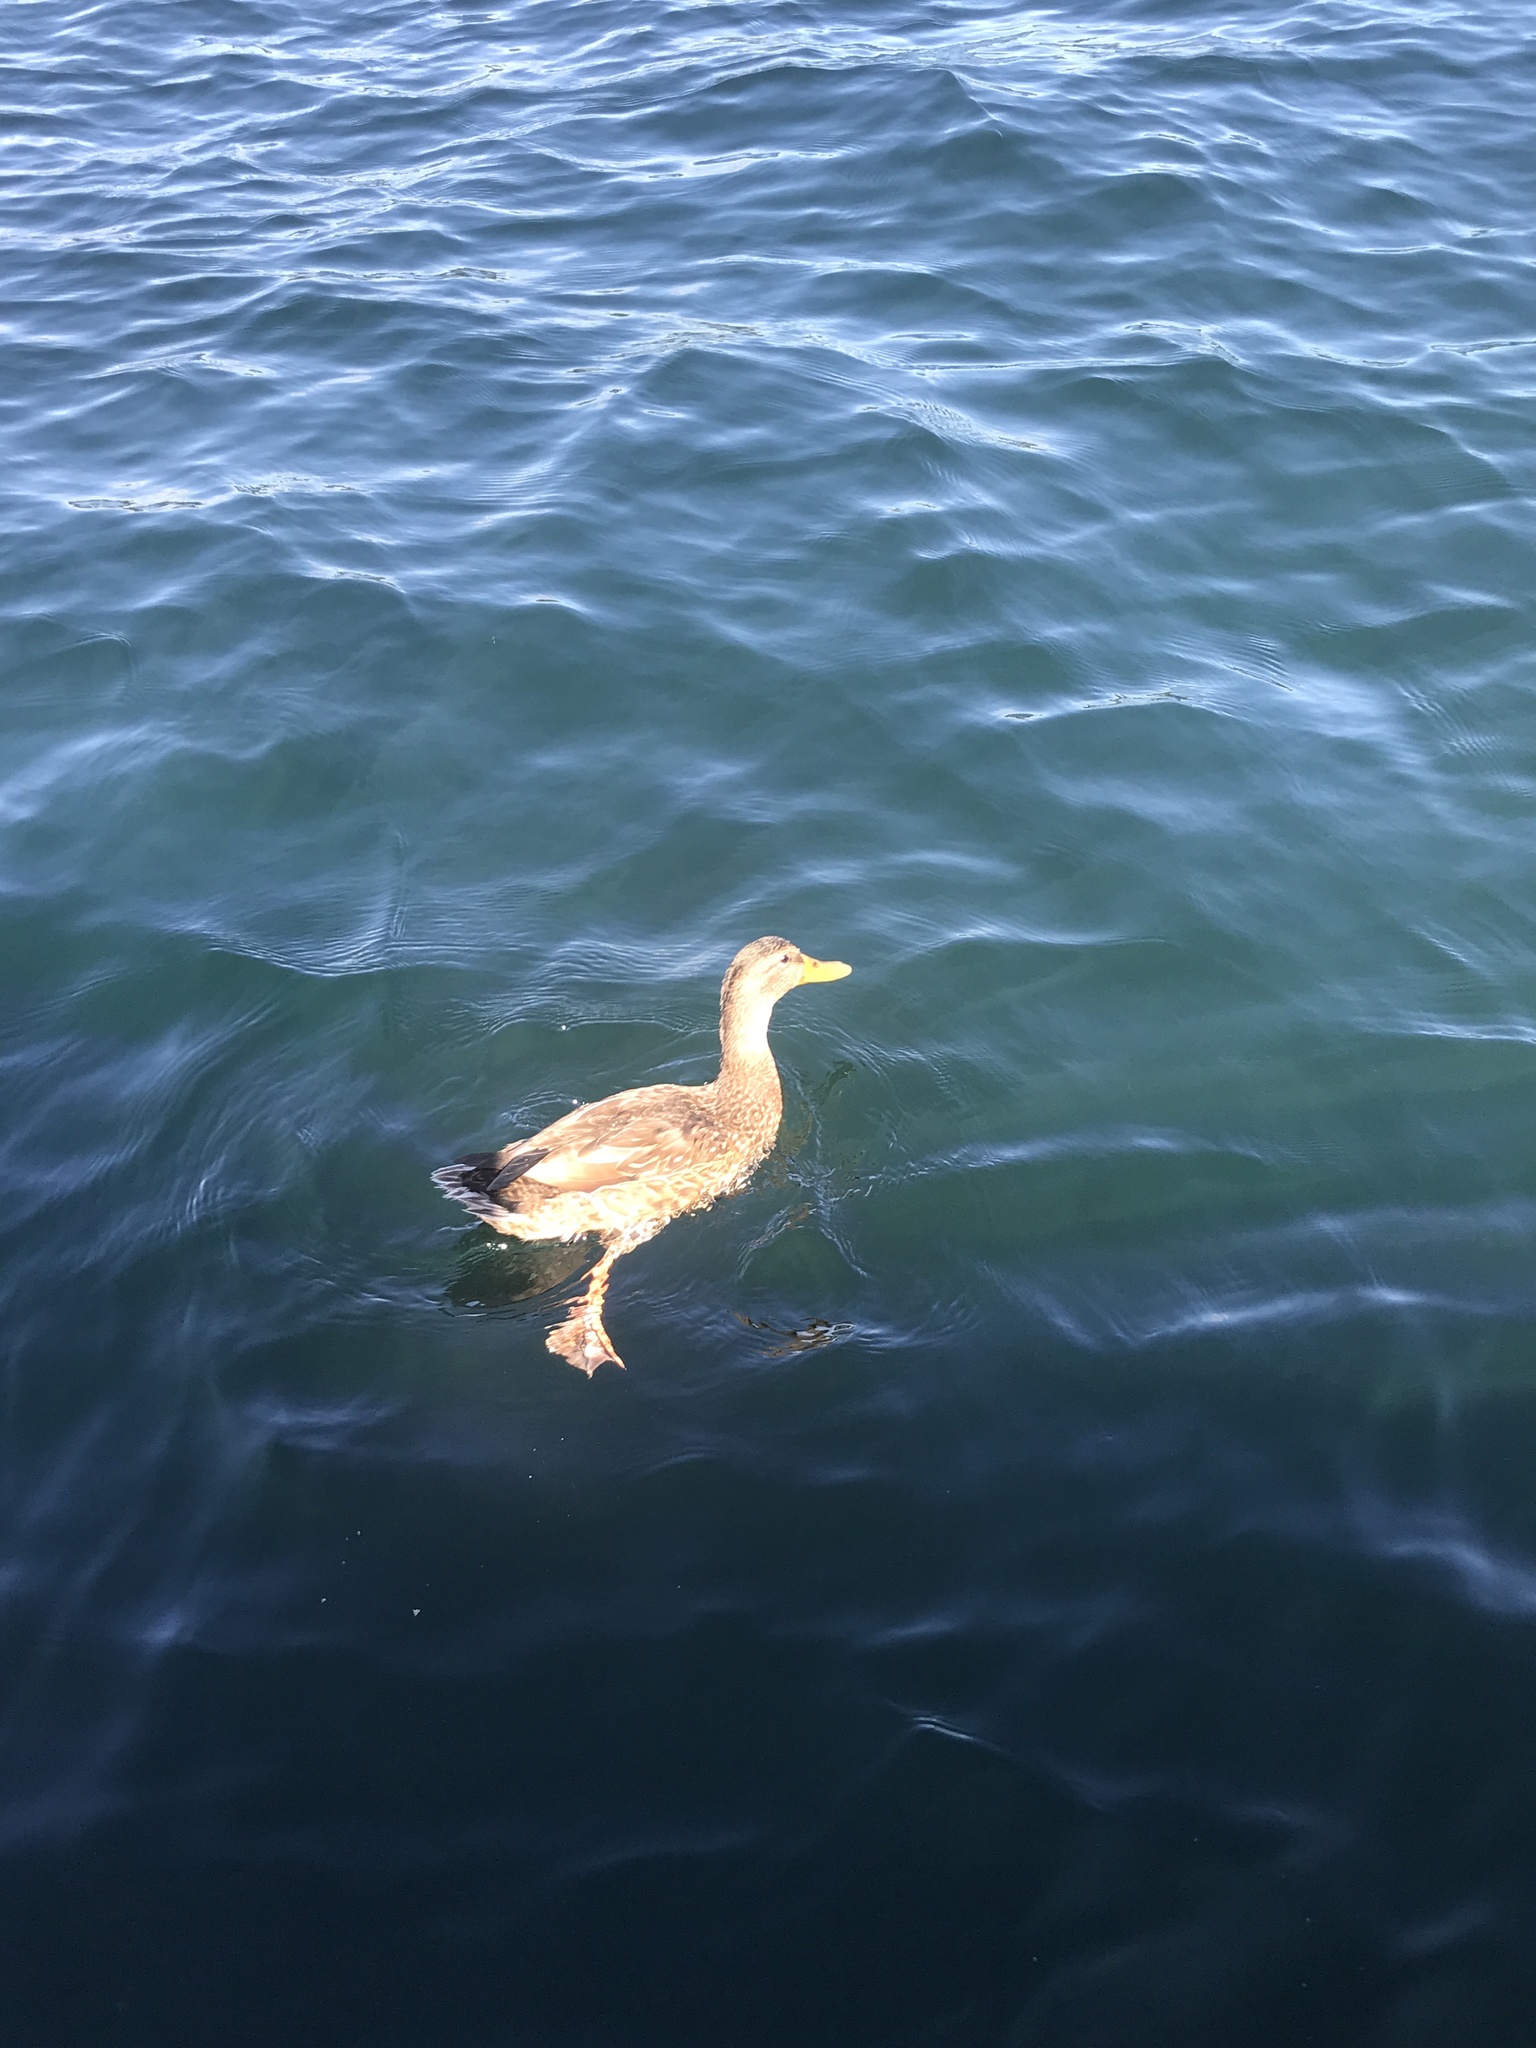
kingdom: Animalia
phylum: Chordata
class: Aves
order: Anseriformes
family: Anatidae
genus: Anas
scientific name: Anas platyrhynchos
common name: Mallard
